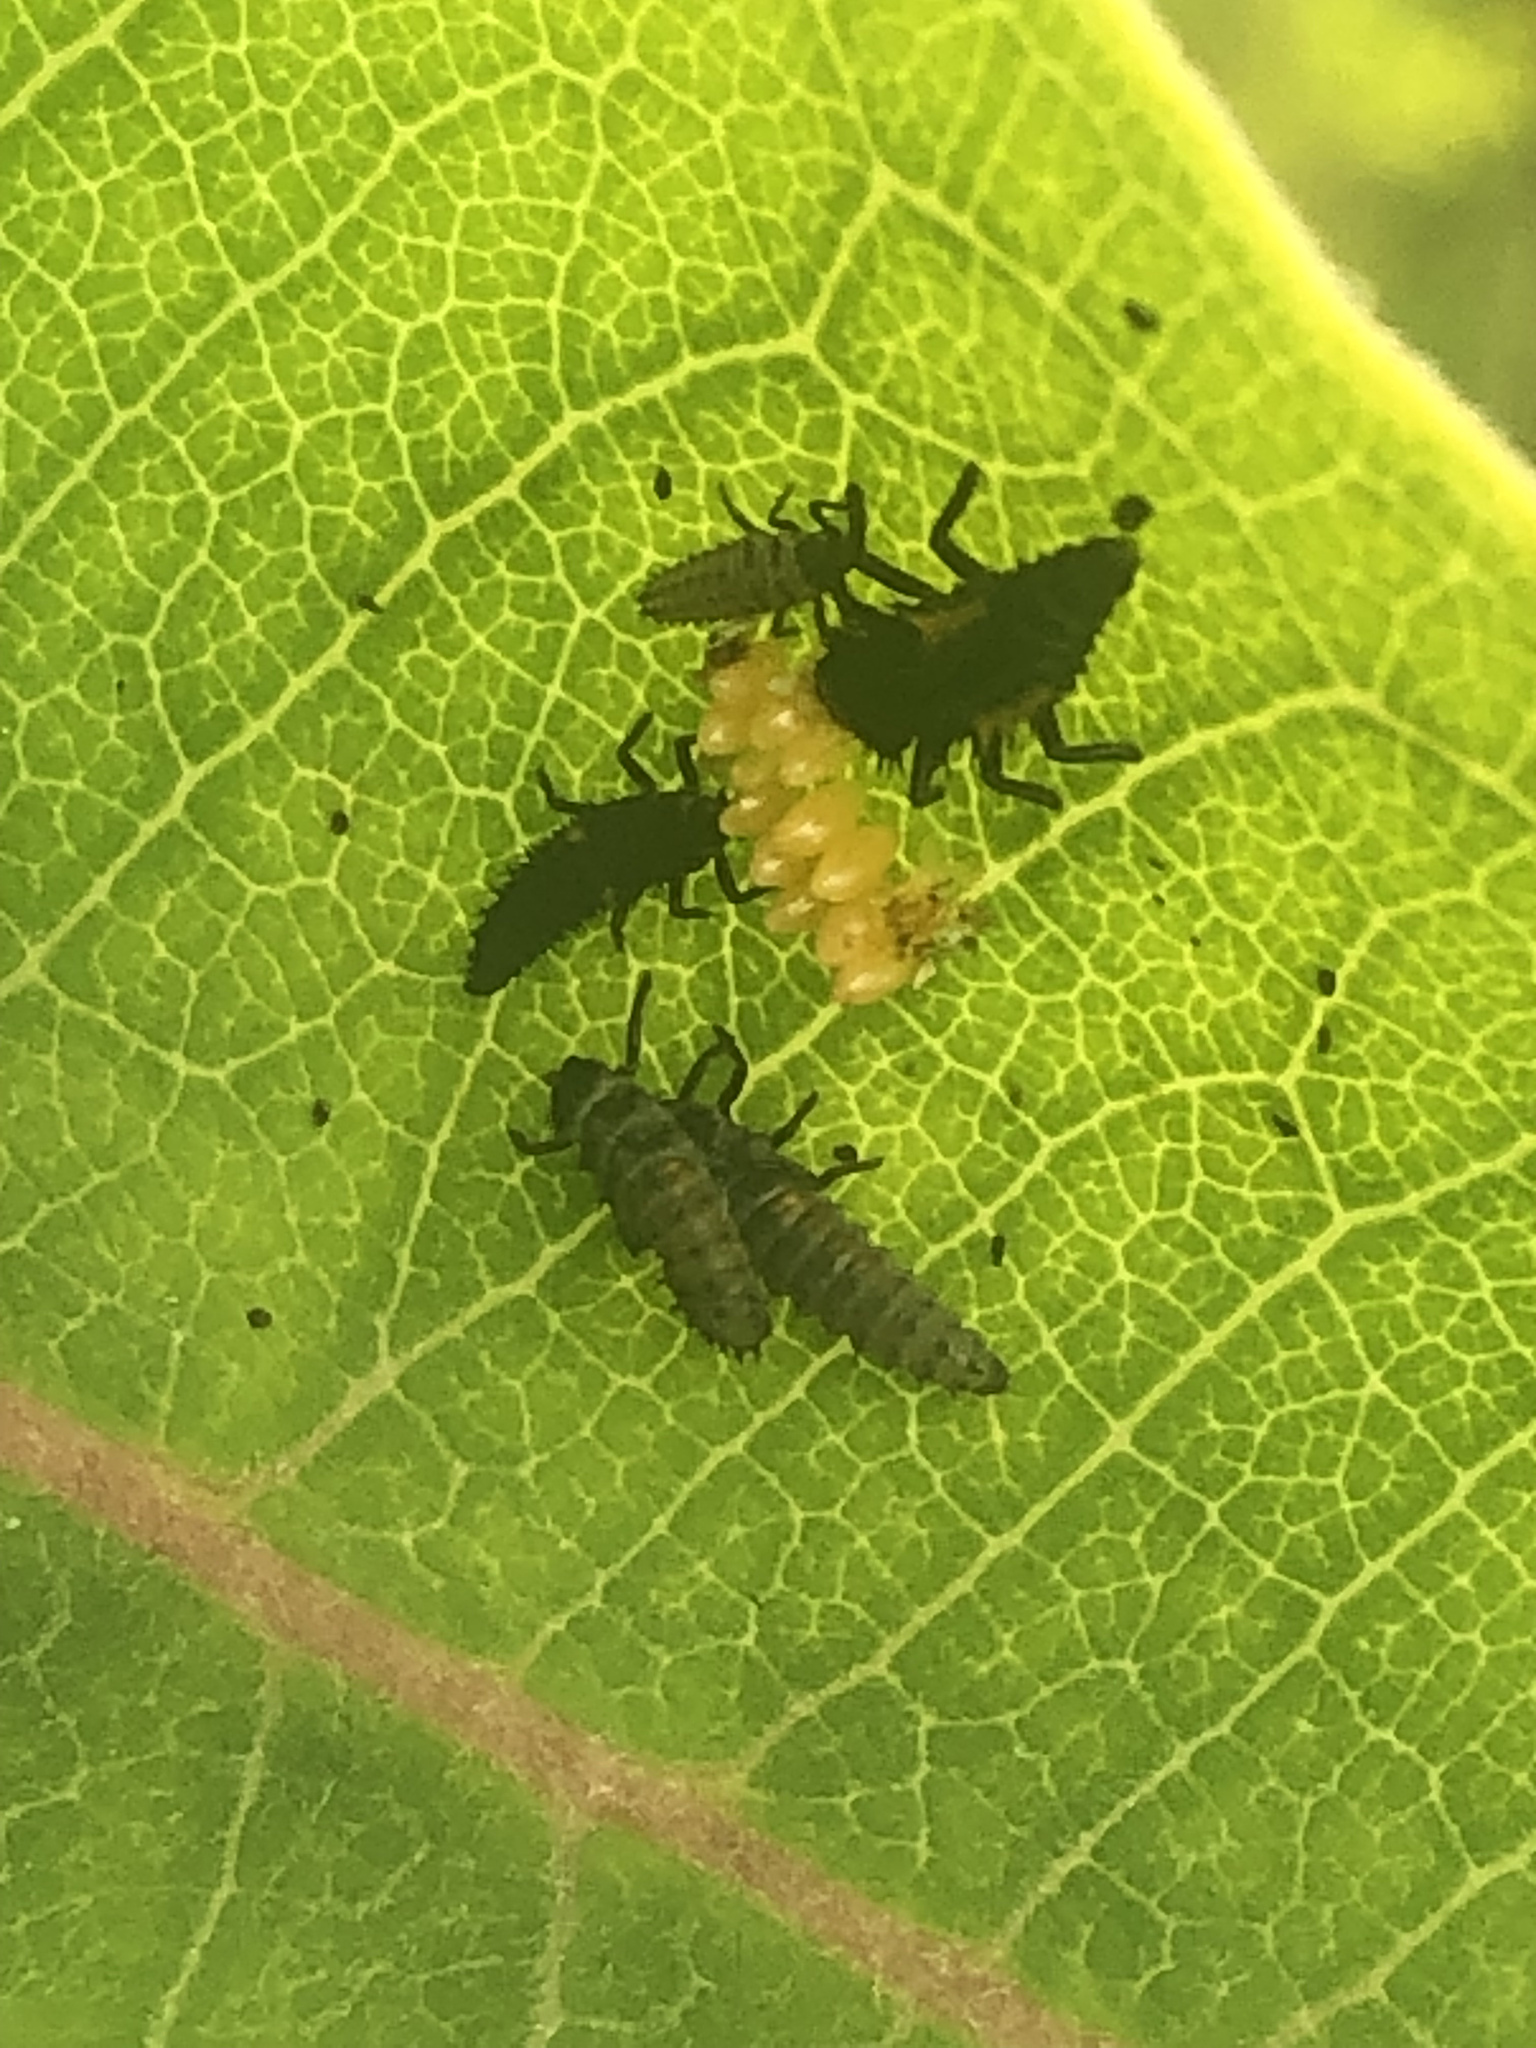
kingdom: Animalia
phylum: Arthropoda
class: Insecta
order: Coleoptera
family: Coccinellidae
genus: Harmonia
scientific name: Harmonia axyridis
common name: Harlequin ladybird
